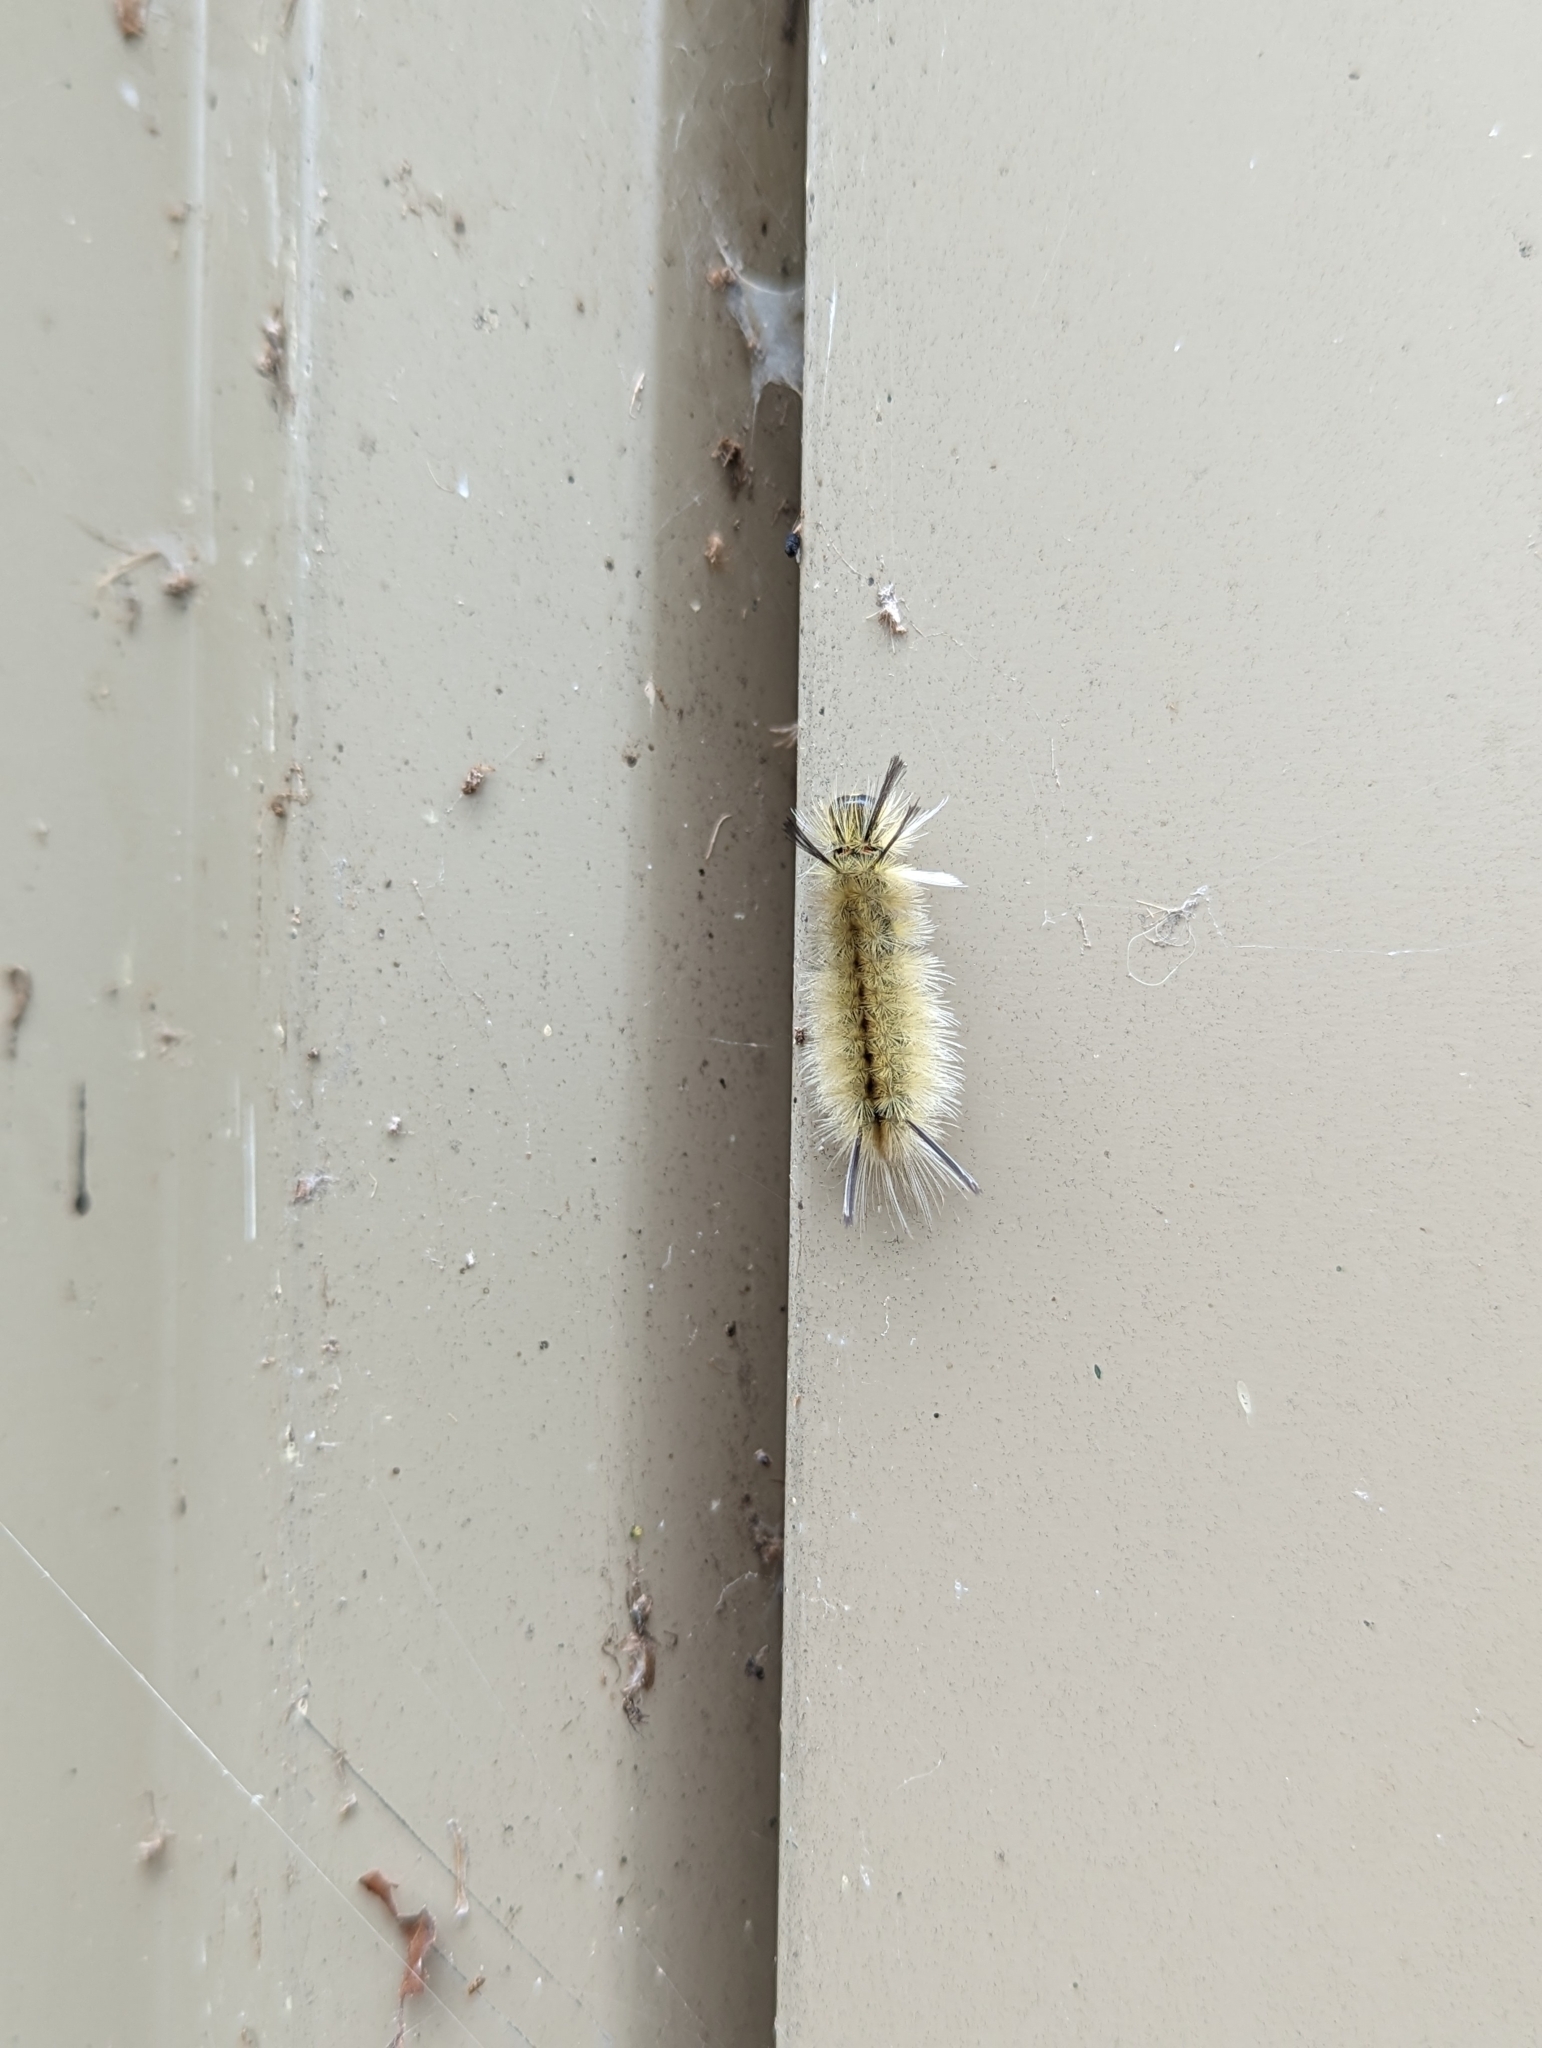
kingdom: Animalia
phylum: Arthropoda
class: Insecta
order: Lepidoptera
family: Erebidae
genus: Halysidota
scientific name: Halysidota tessellaris
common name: Banded tussock moth
